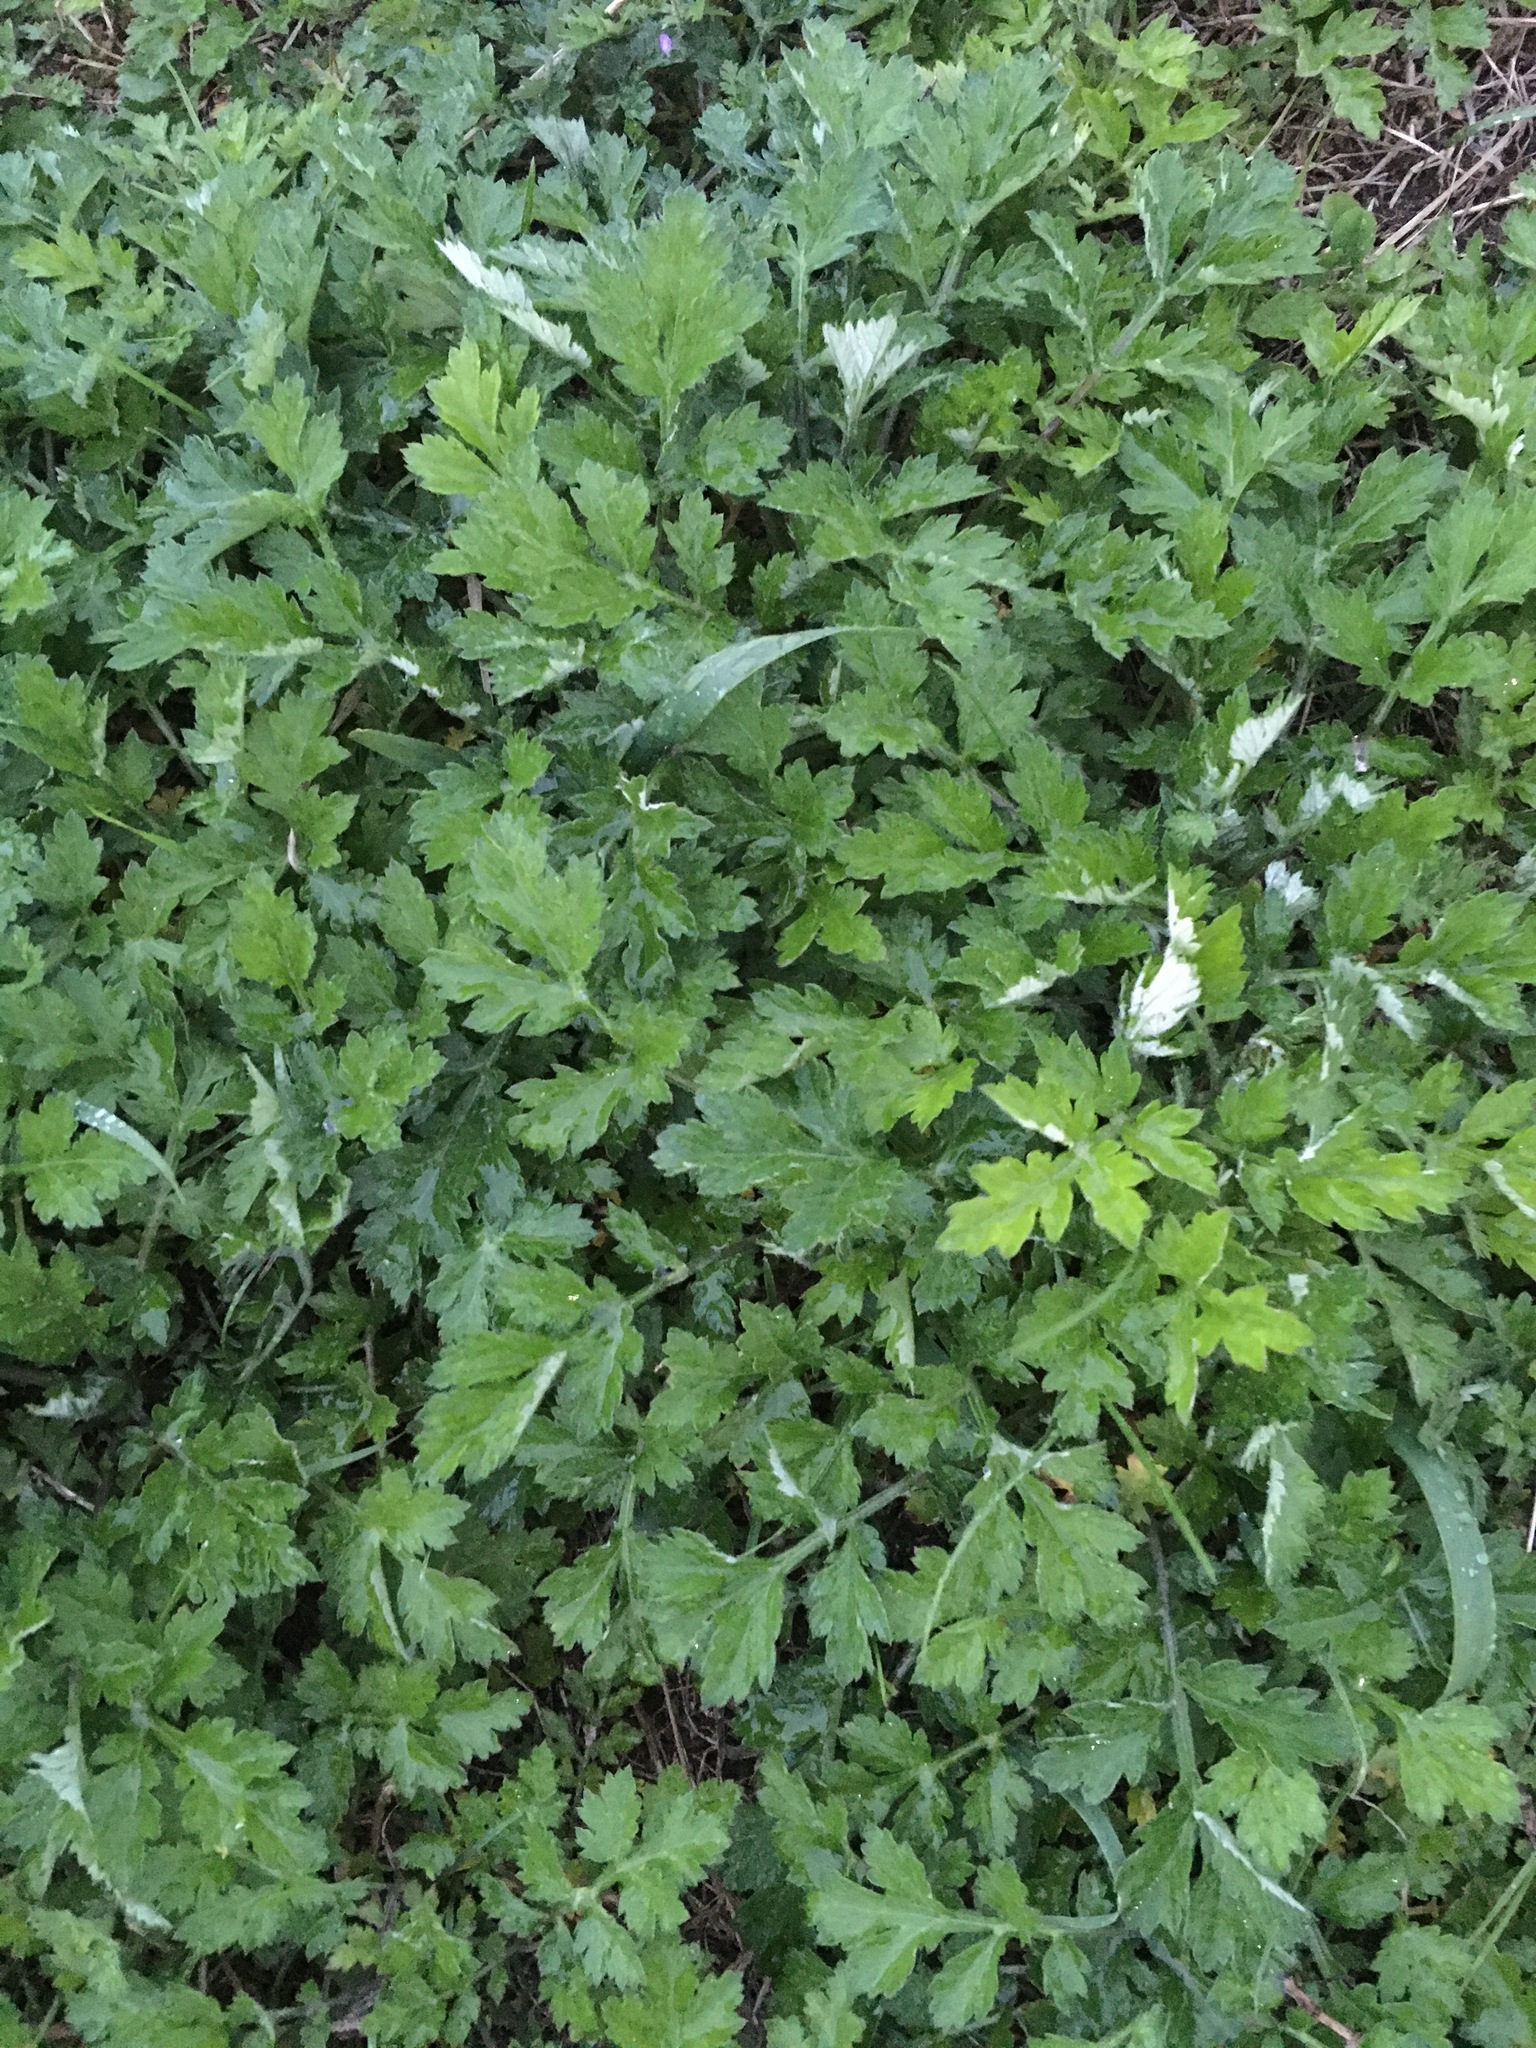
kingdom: Plantae
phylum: Tracheophyta
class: Magnoliopsida
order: Asterales
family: Asteraceae
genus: Artemisia
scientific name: Artemisia vulgaris
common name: Mugwort
